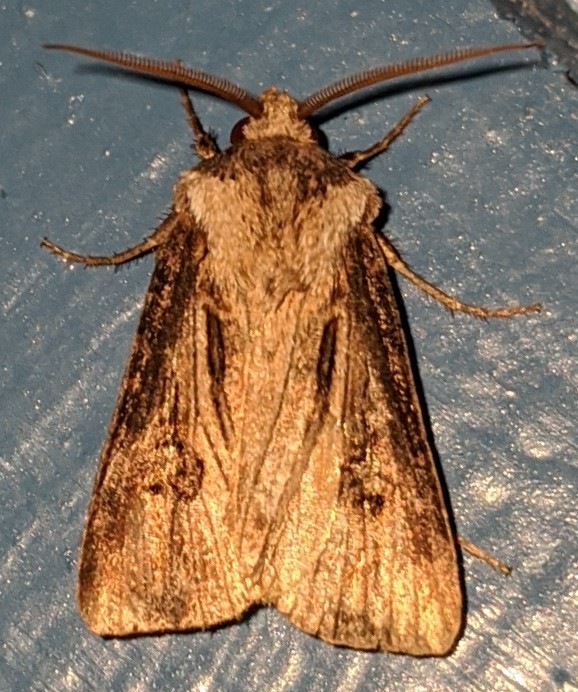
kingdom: Animalia
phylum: Arthropoda
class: Insecta
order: Lepidoptera
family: Noctuidae
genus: Agrotis
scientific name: Agrotis venerabilis
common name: Venerable dart
